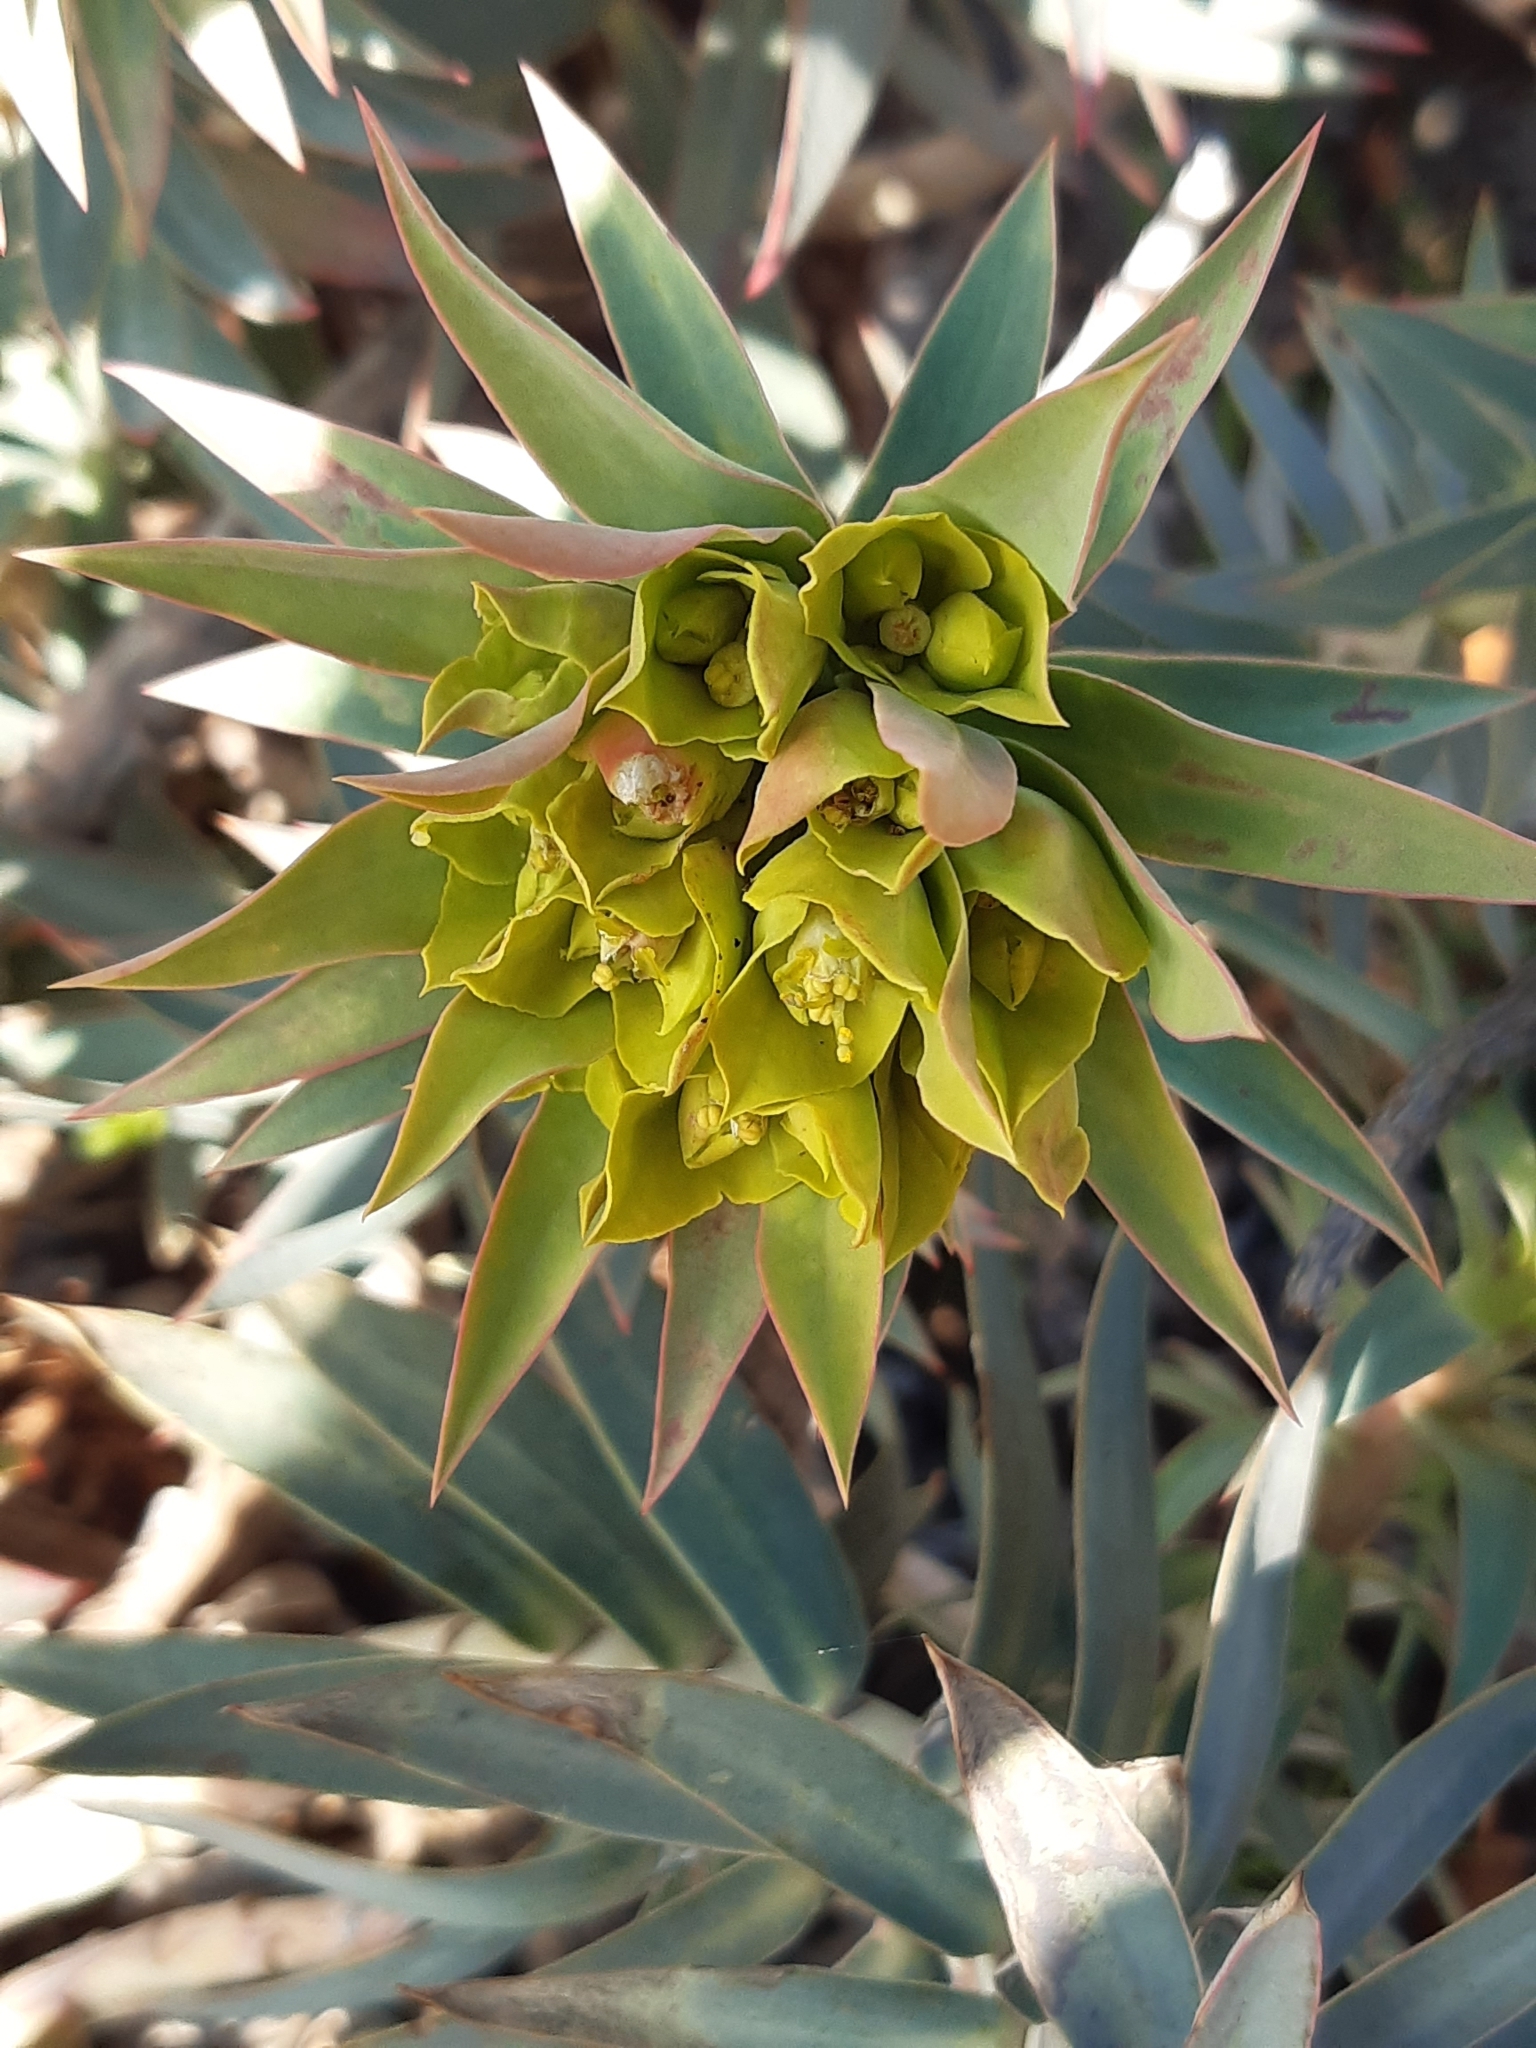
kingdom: Plantae
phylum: Tracheophyta
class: Magnoliopsida
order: Malpighiales
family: Euphorbiaceae
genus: Euphorbia
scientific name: Euphorbia rigida
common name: Upright myrtle spurge
